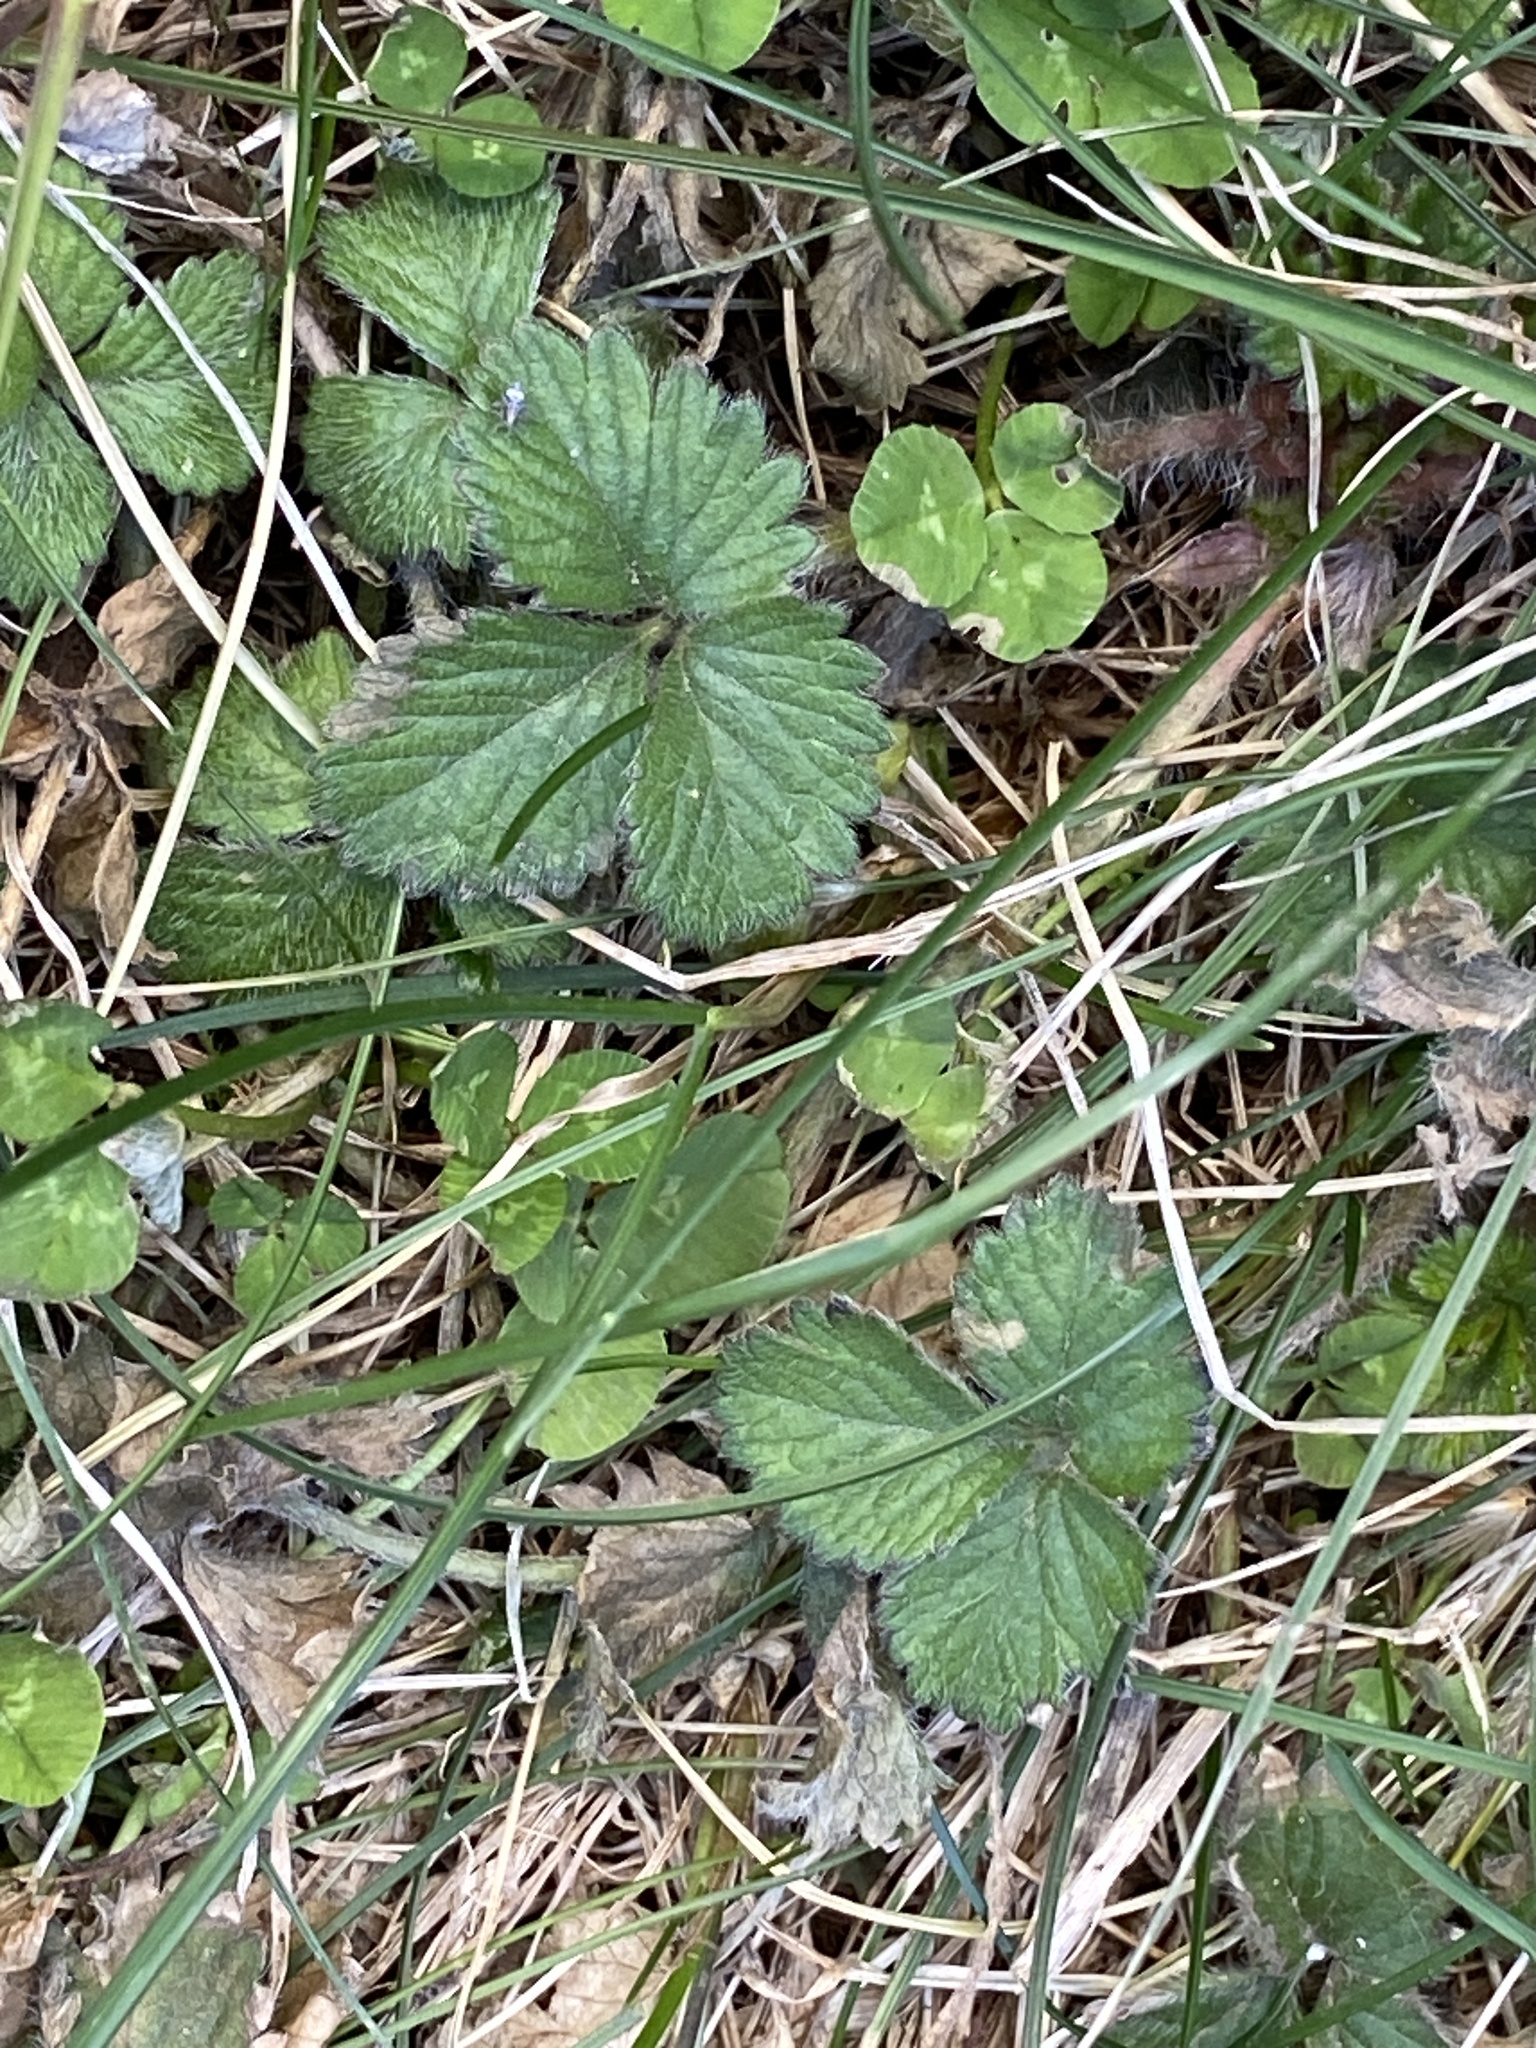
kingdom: Plantae
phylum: Tracheophyta
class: Magnoliopsida
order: Rosales
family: Rosaceae
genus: Potentilla
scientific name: Potentilla indica
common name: Yellow-flowered strawberry
